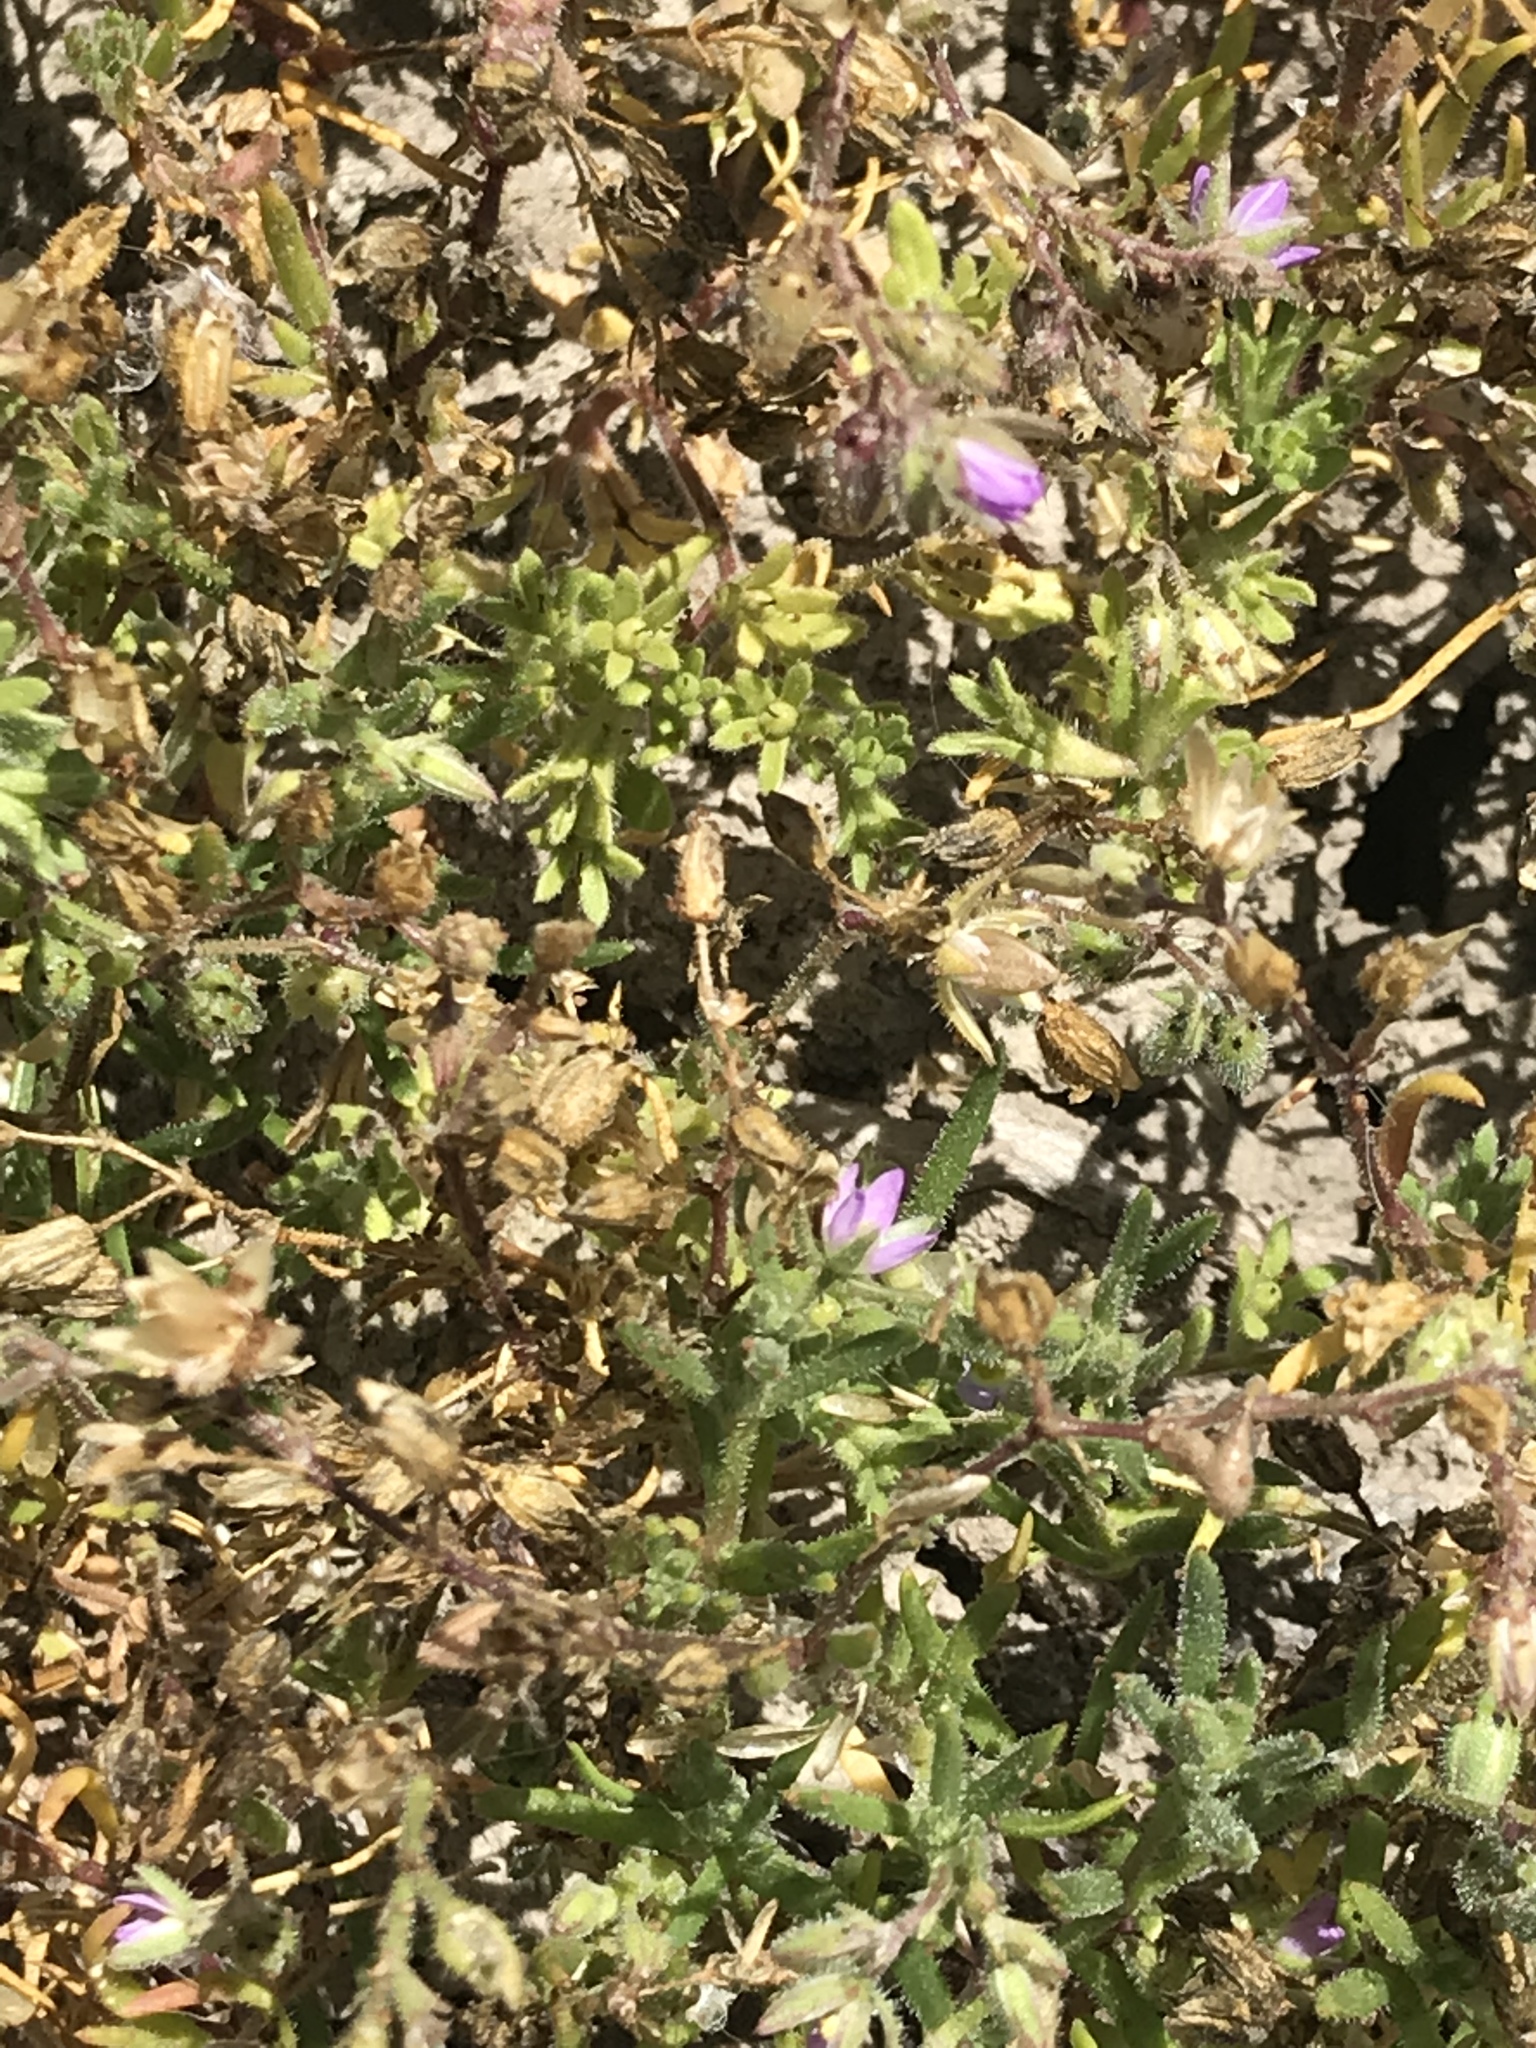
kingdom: Plantae
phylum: Tracheophyta
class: Magnoliopsida
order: Caryophyllales
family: Caryophyllaceae
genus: Spergularia
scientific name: Spergularia marina
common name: Lesser sea-spurrey
